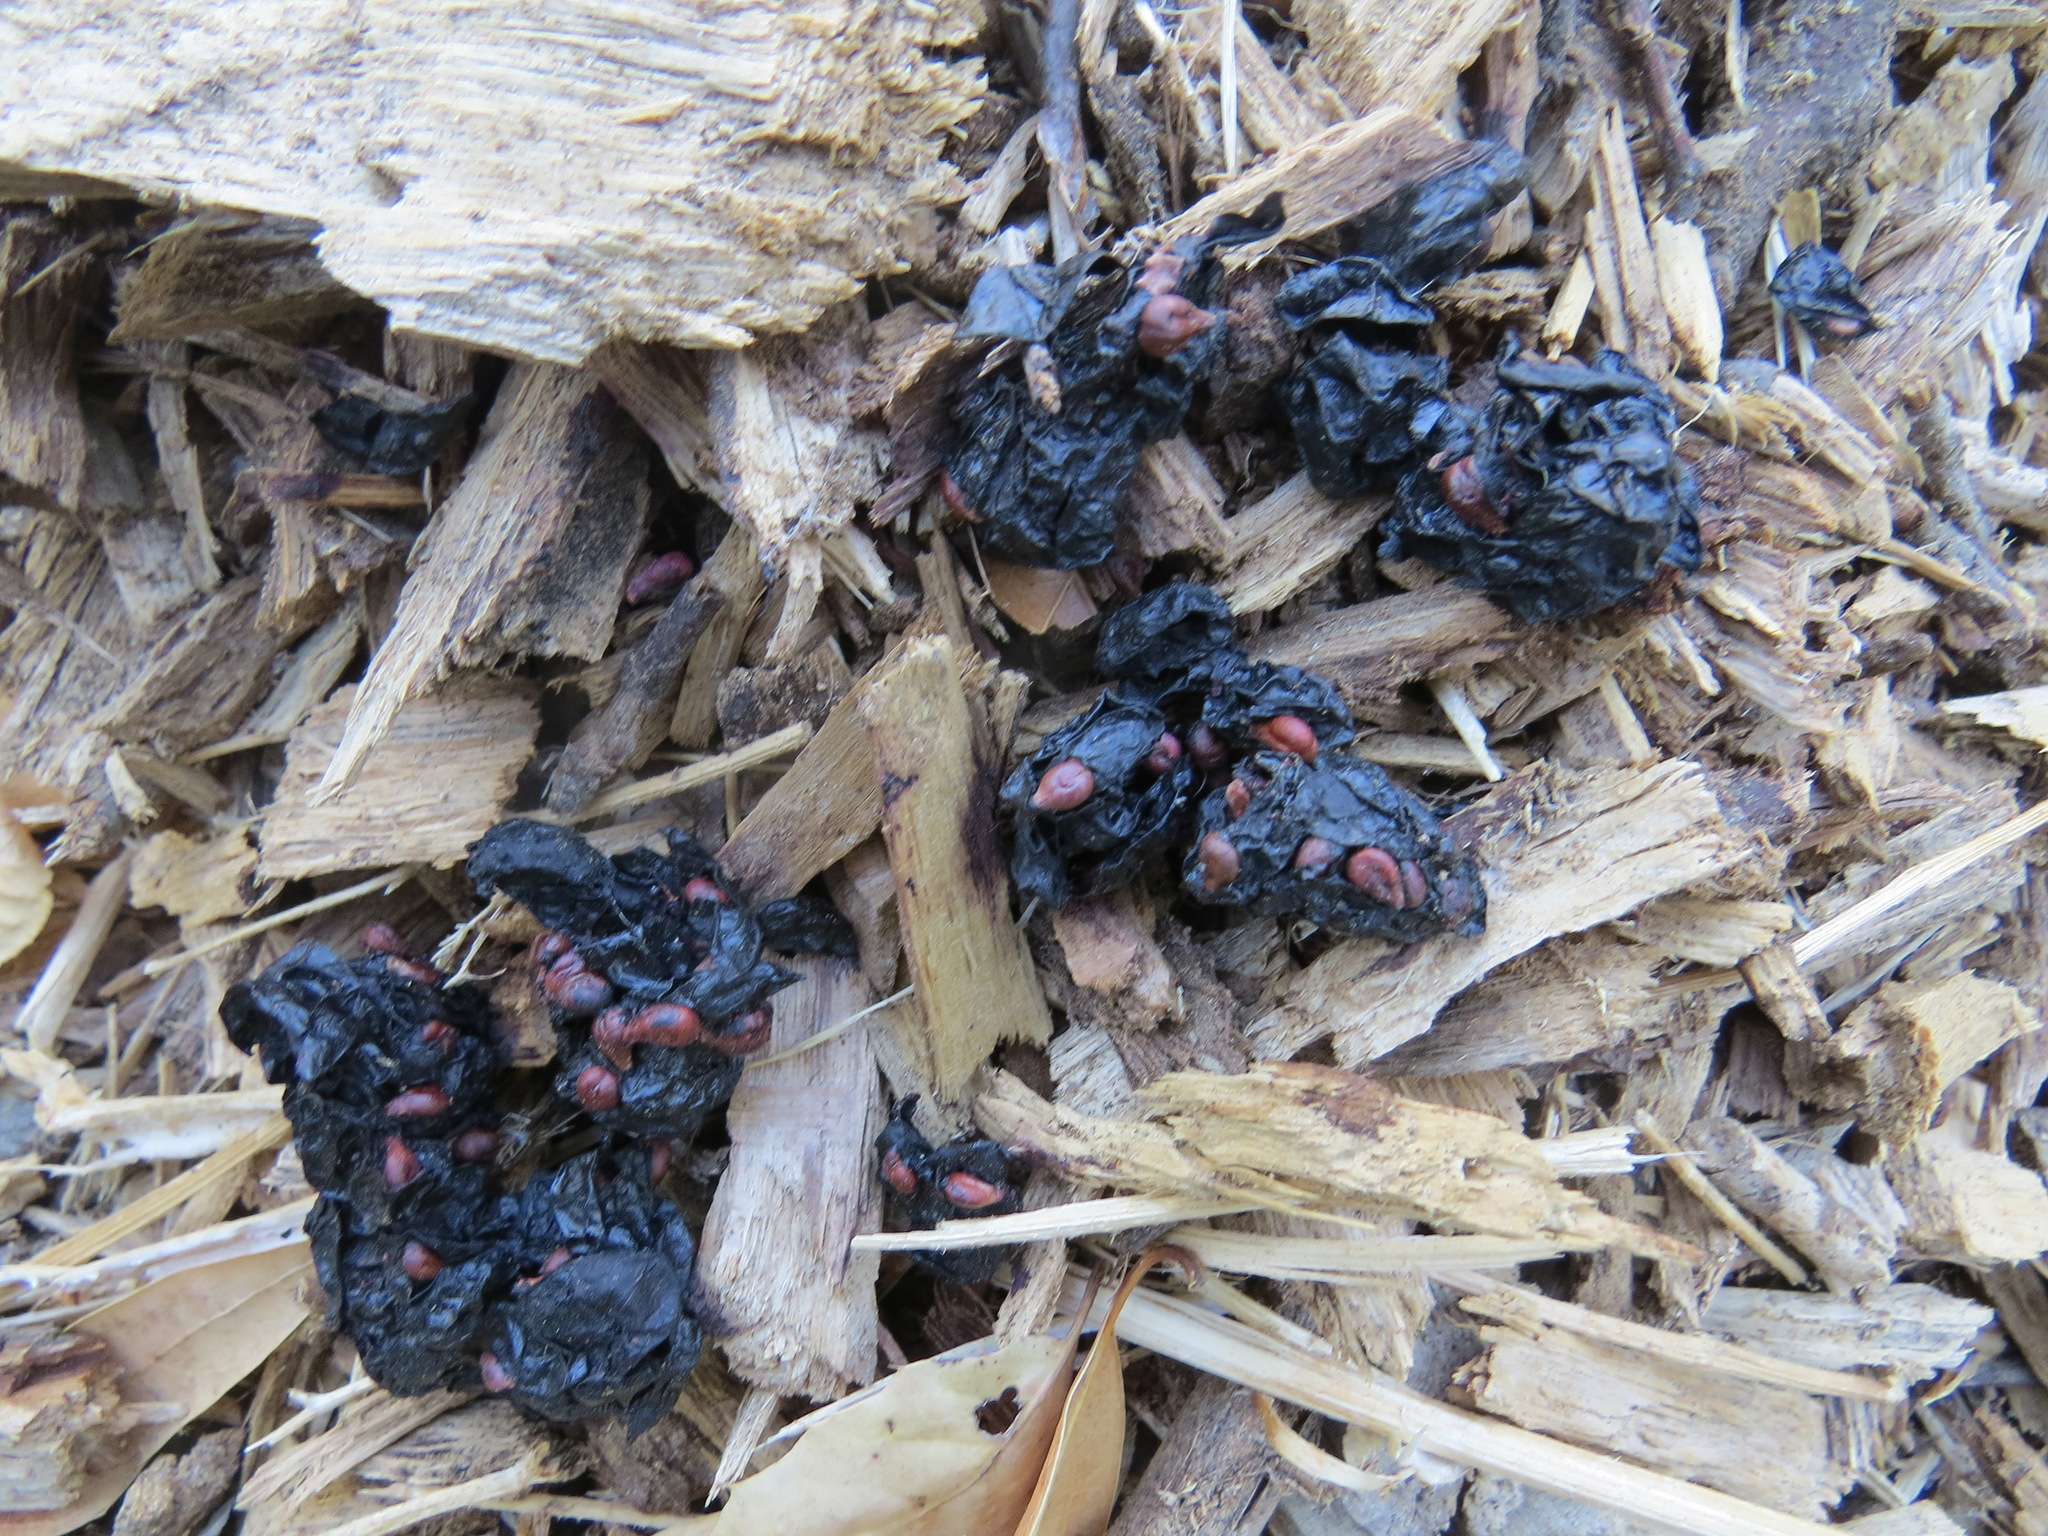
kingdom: Animalia
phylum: Chordata
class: Mammalia
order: Carnivora
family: Canidae
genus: Urocyon
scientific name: Urocyon cinereoargenteus
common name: Gray fox
